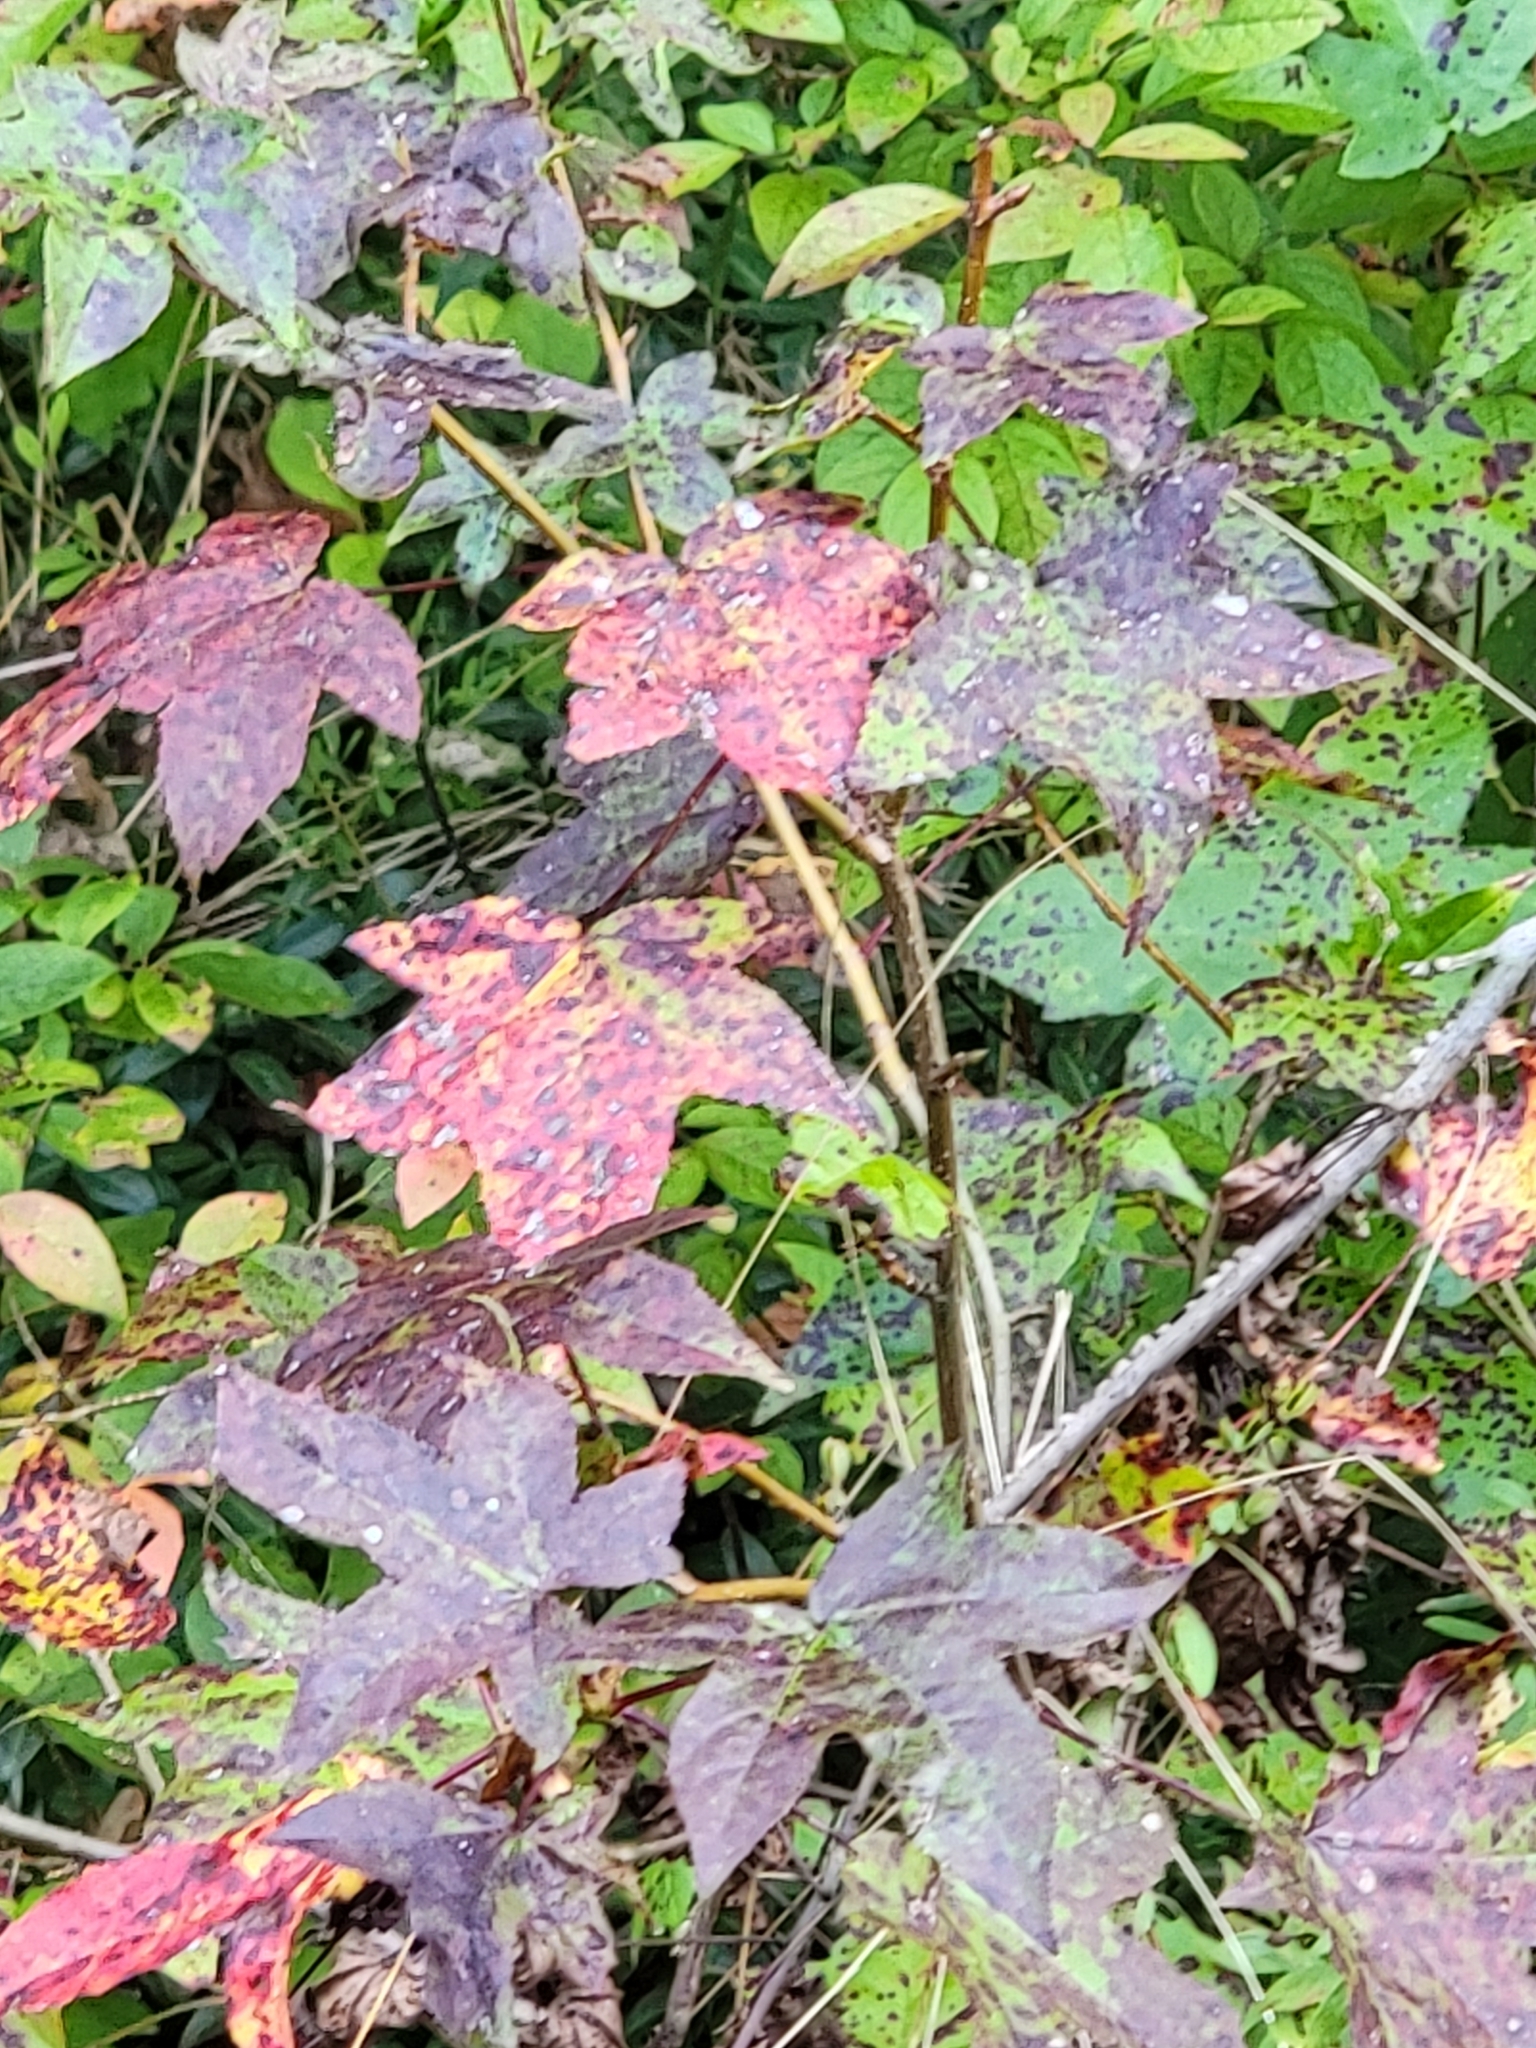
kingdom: Plantae
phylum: Tracheophyta
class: Magnoliopsida
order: Saxifragales
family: Altingiaceae
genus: Liquidambar
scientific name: Liquidambar styraciflua
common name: Sweet gum
